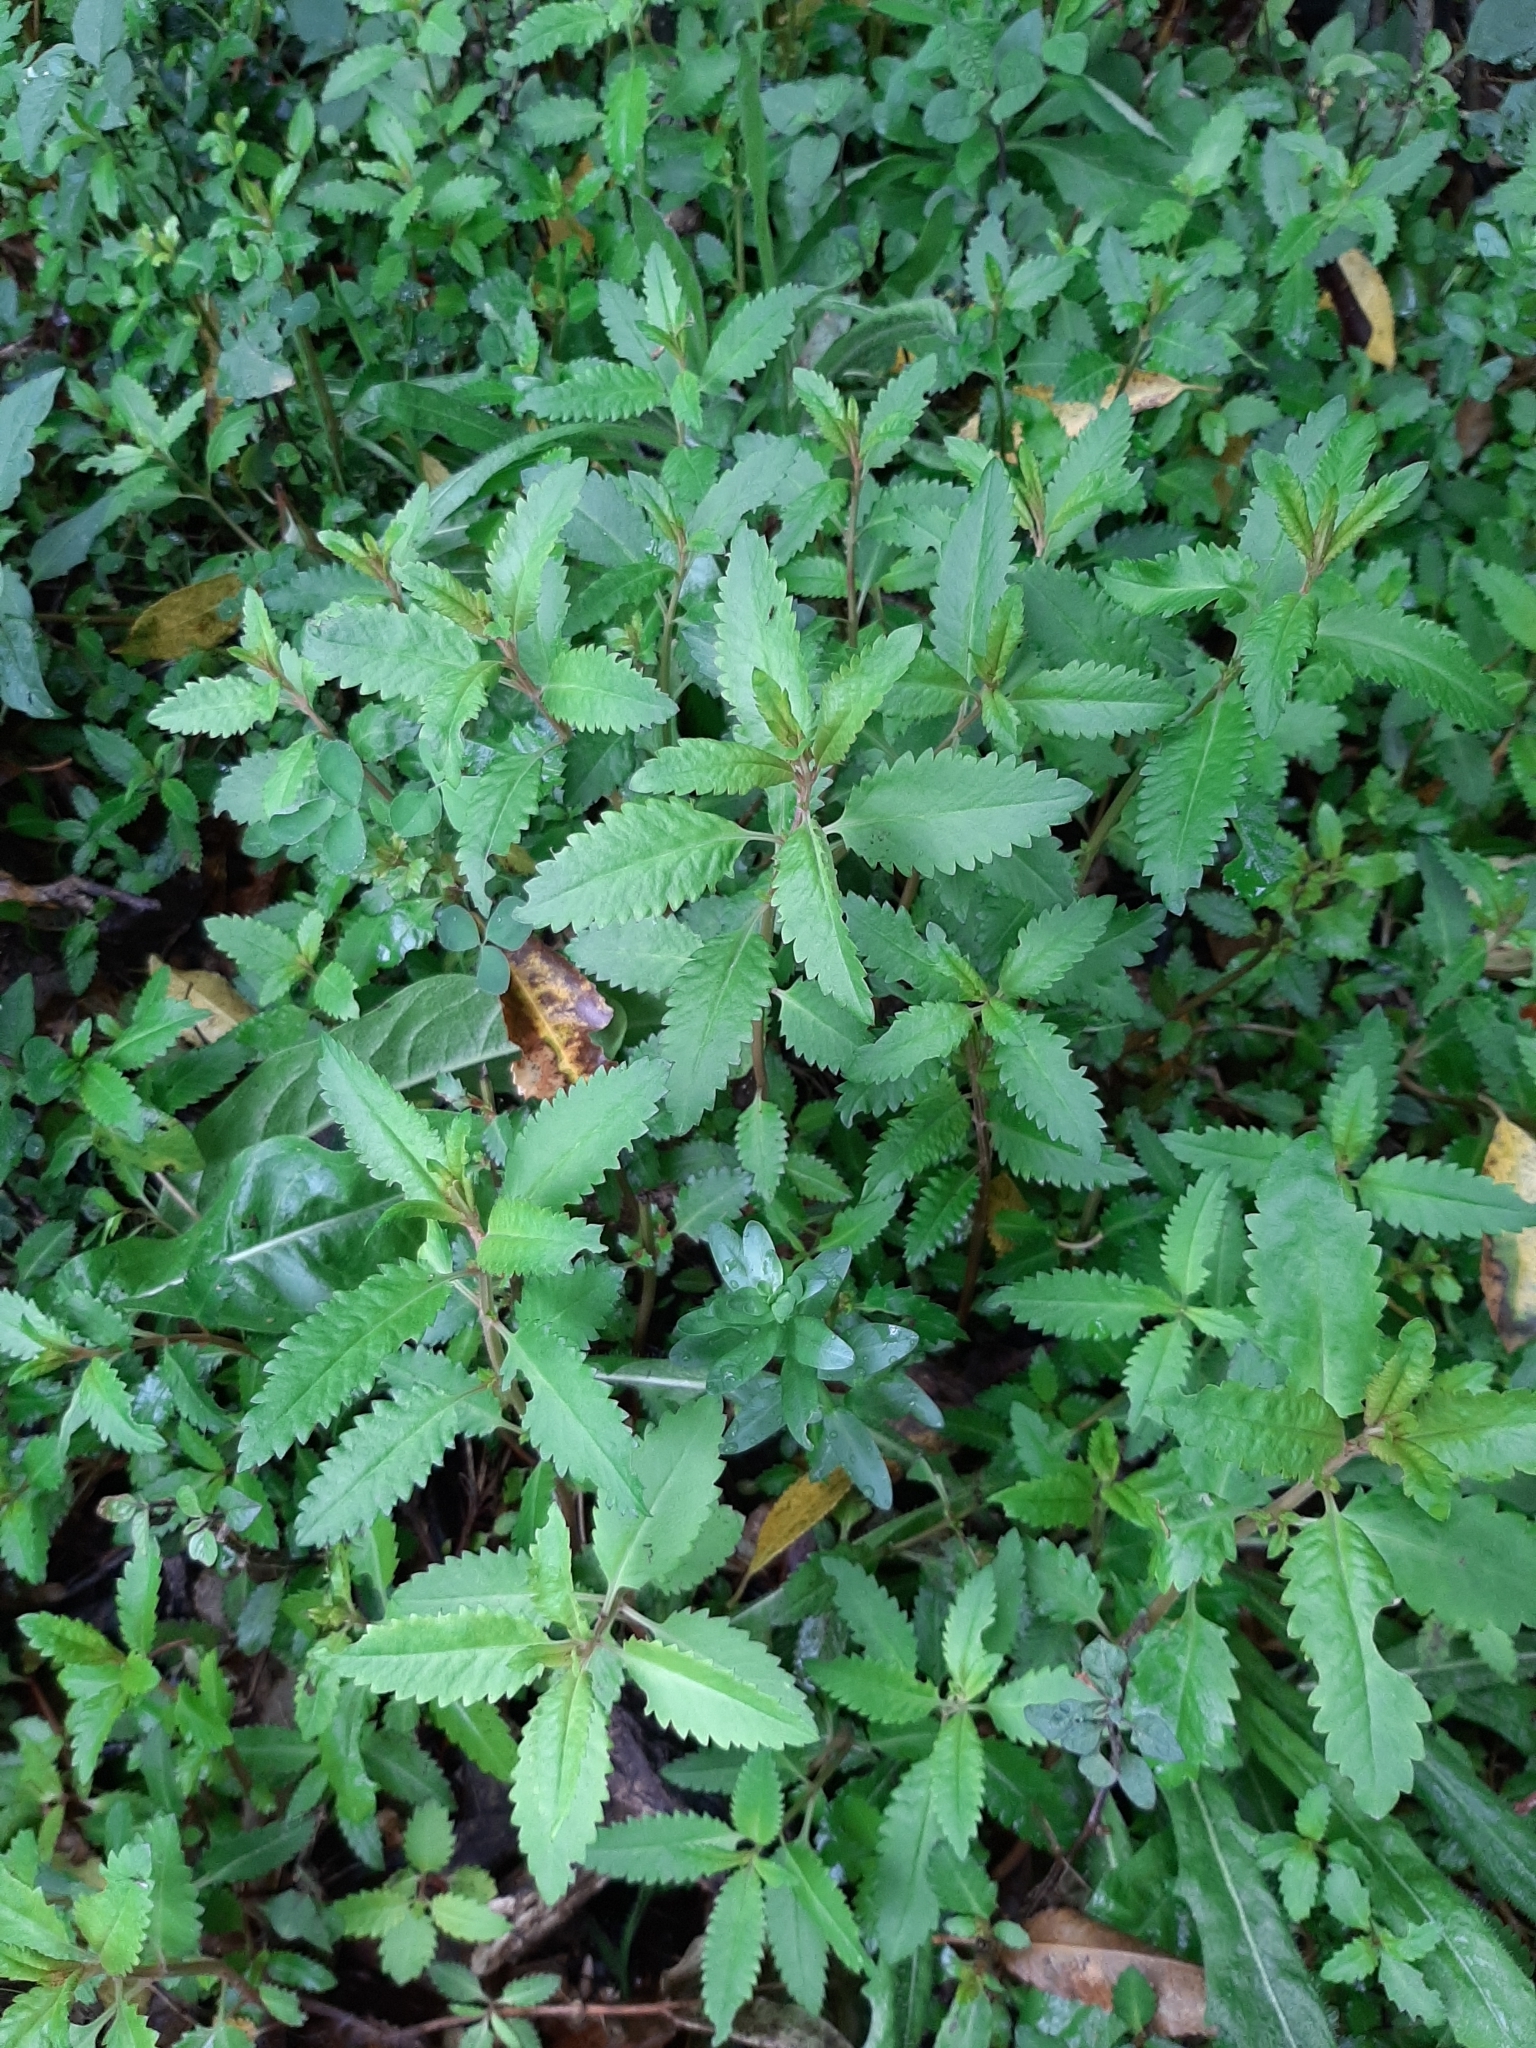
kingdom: Plantae
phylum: Tracheophyta
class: Magnoliopsida
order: Saxifragales
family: Haloragaceae
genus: Haloragis
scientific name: Haloragis erecta
